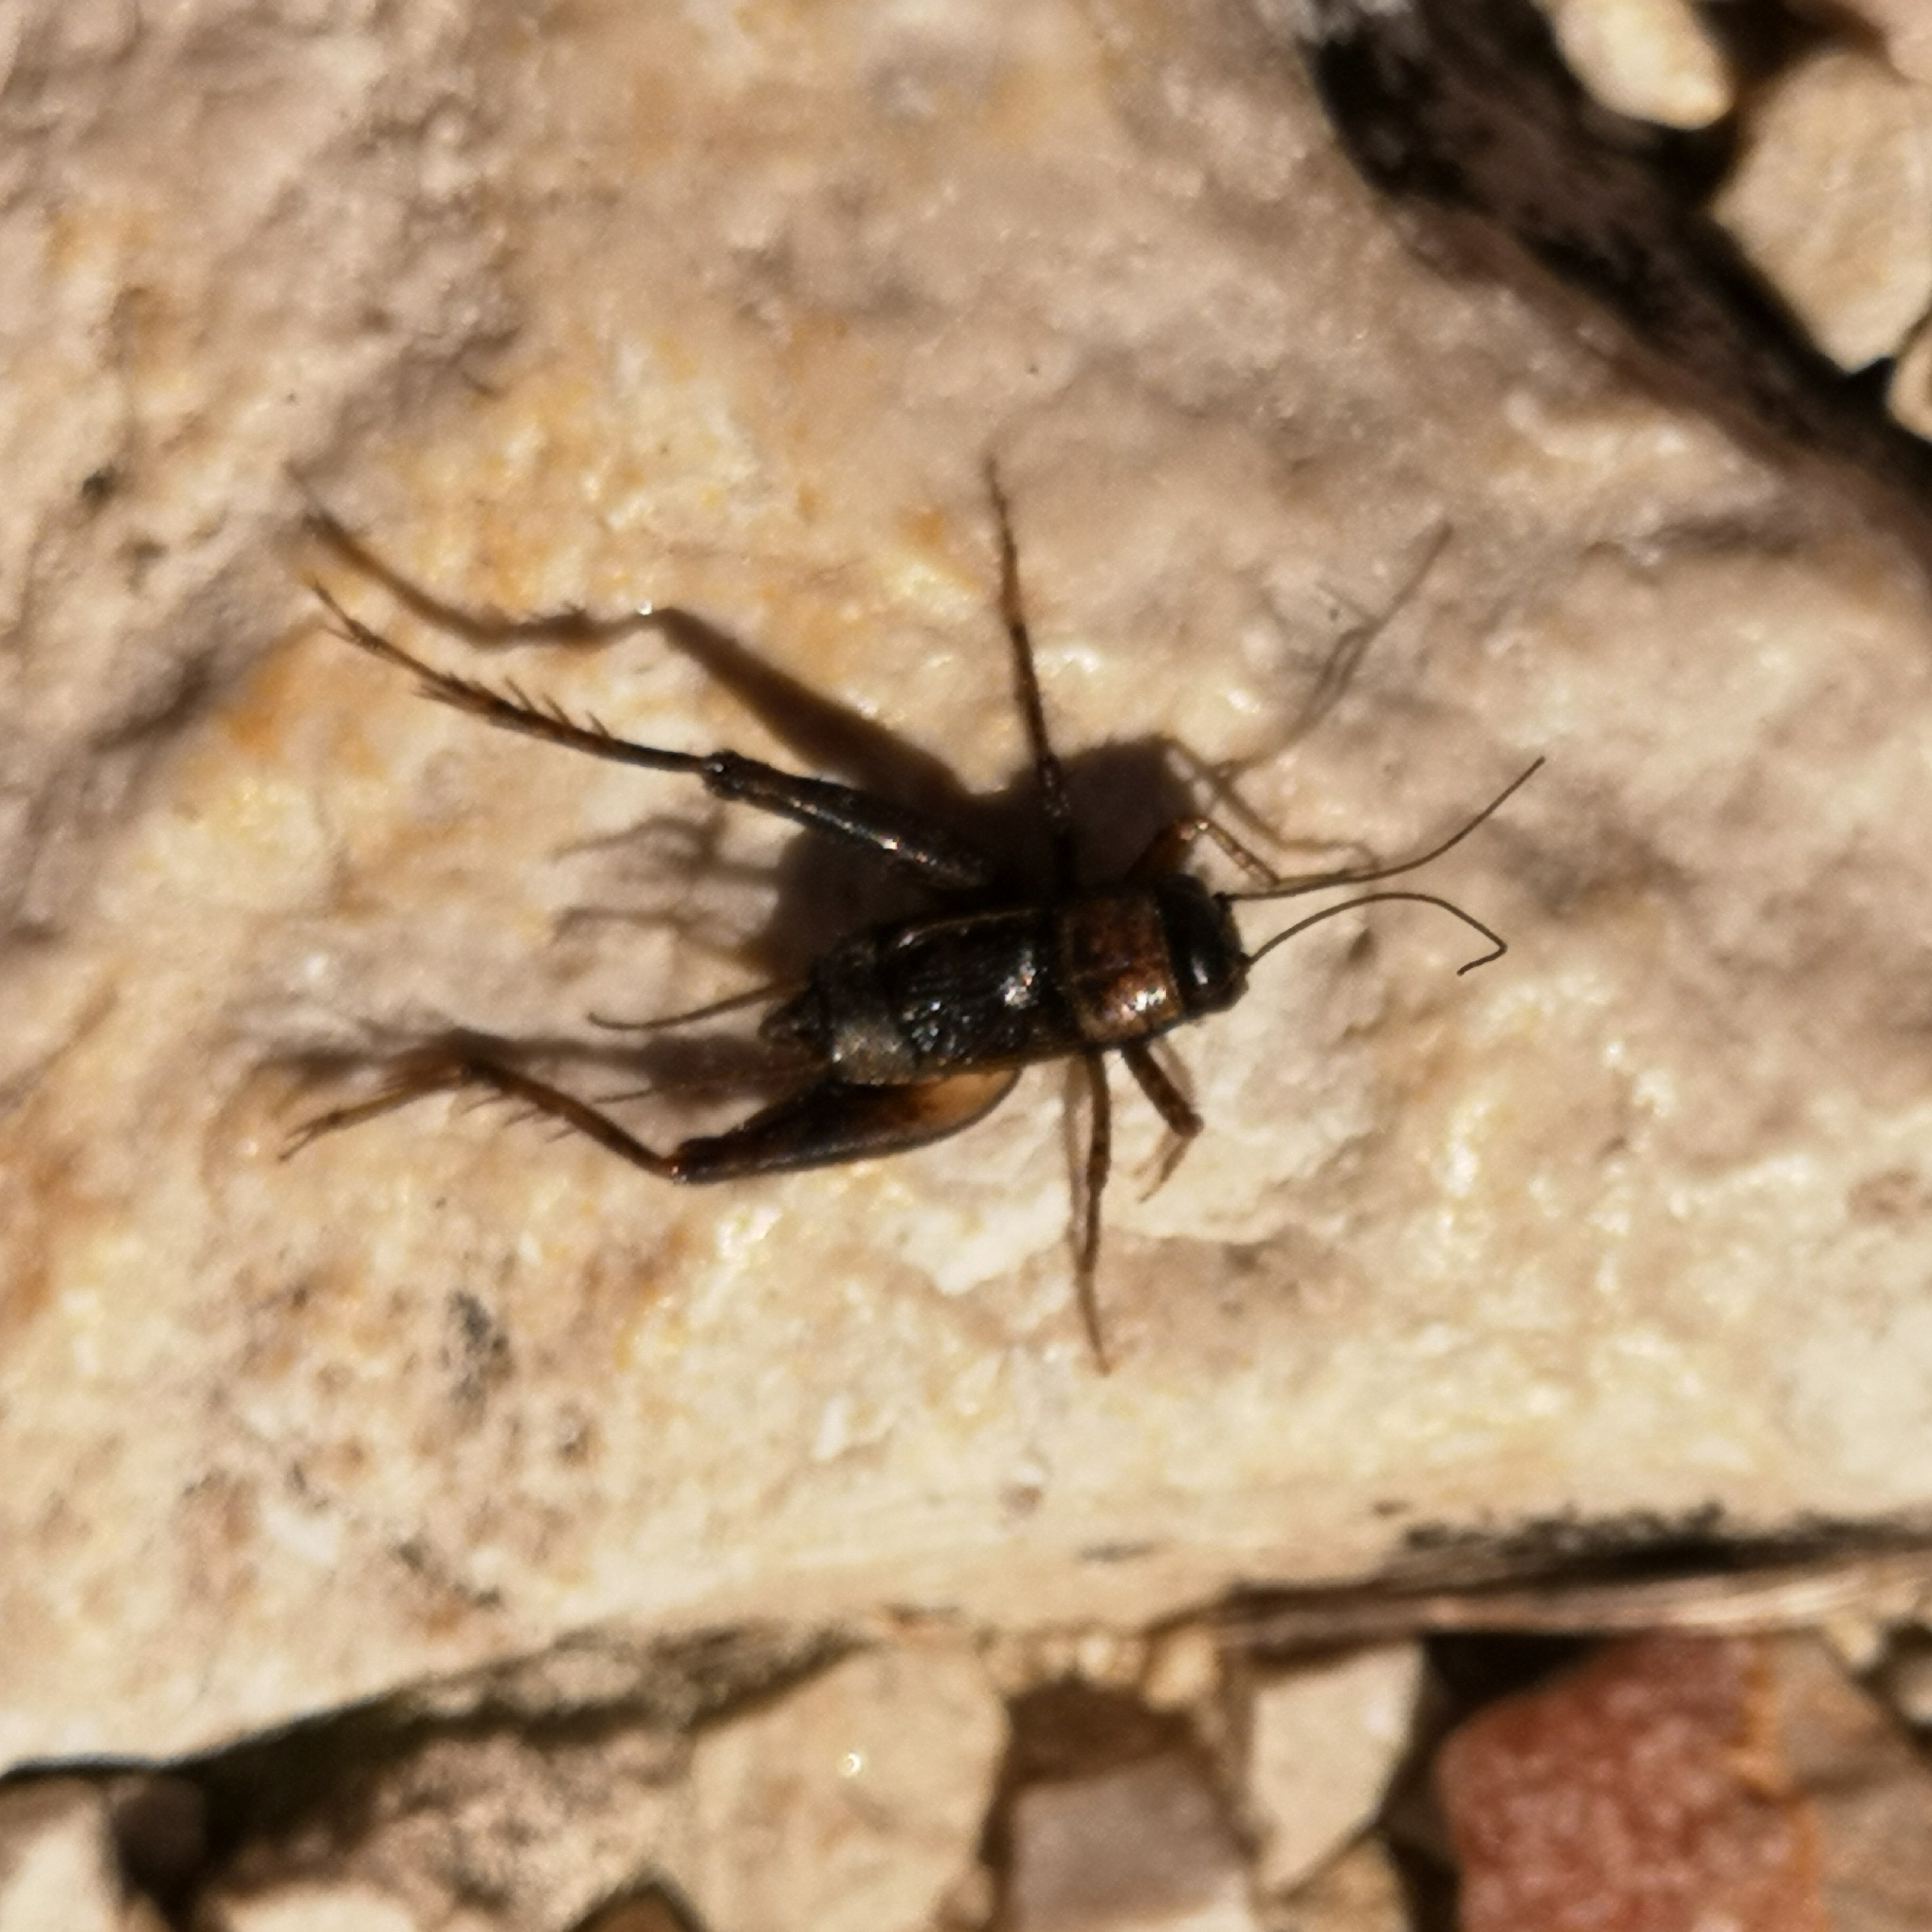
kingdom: Animalia
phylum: Arthropoda
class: Insecta
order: Orthoptera
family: Trigonidiidae
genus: Nemobius
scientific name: Nemobius sylvestris
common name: Wood-cricket
